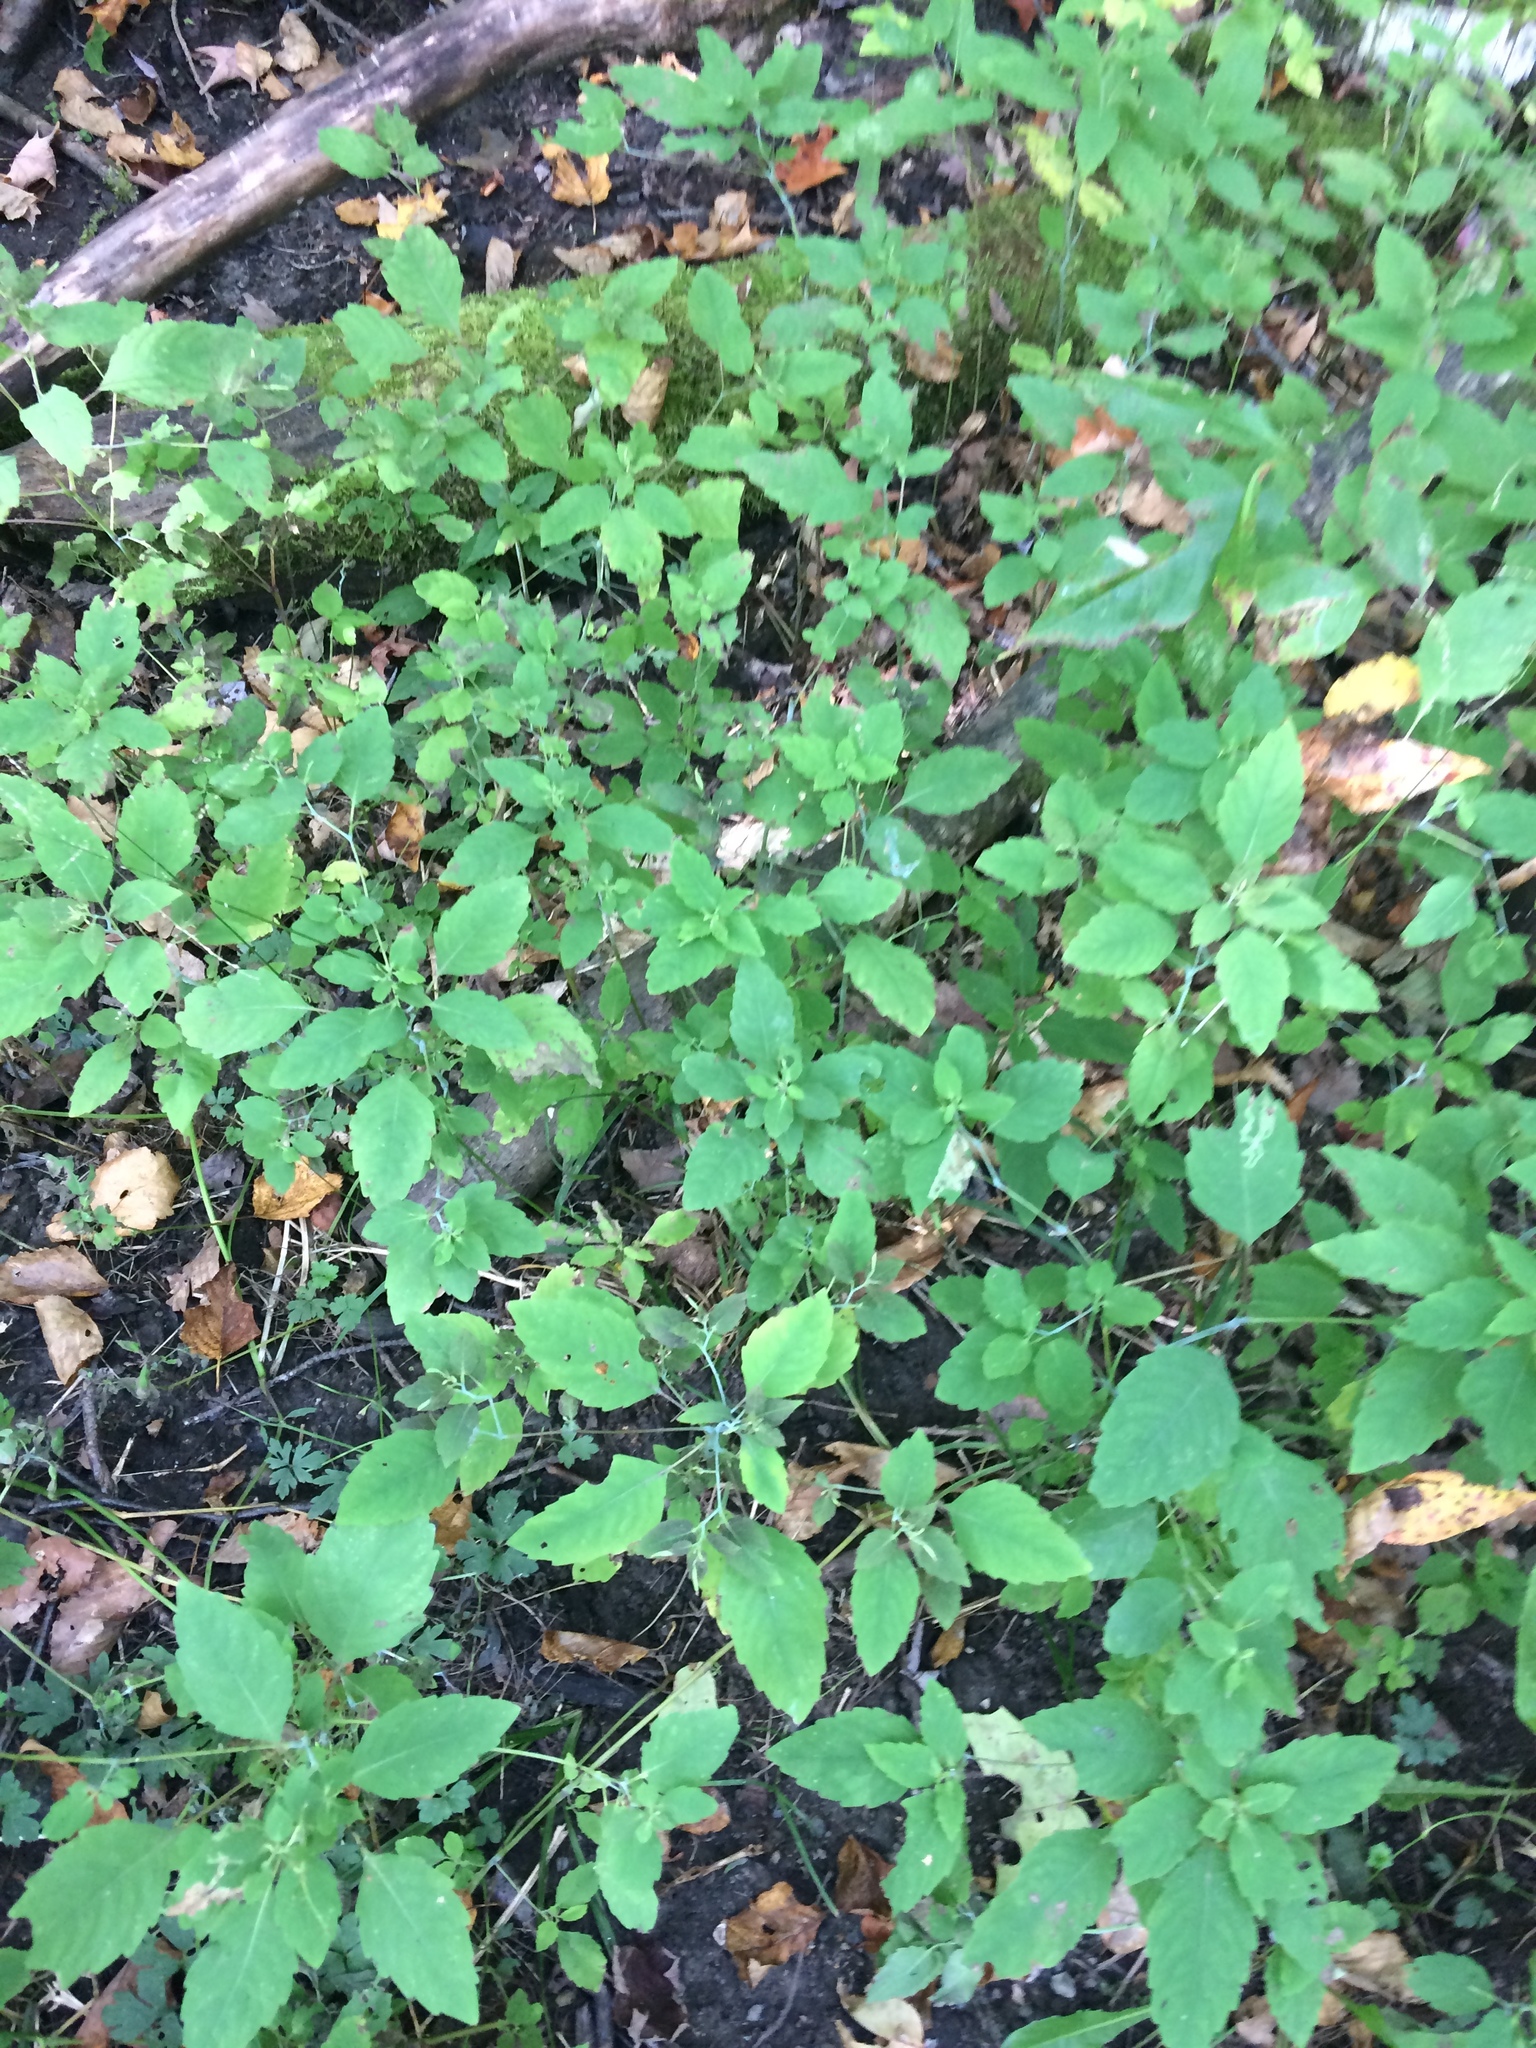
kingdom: Plantae
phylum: Tracheophyta
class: Magnoliopsida
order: Ericales
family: Balsaminaceae
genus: Impatiens
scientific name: Impatiens capensis
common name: Orange balsam
